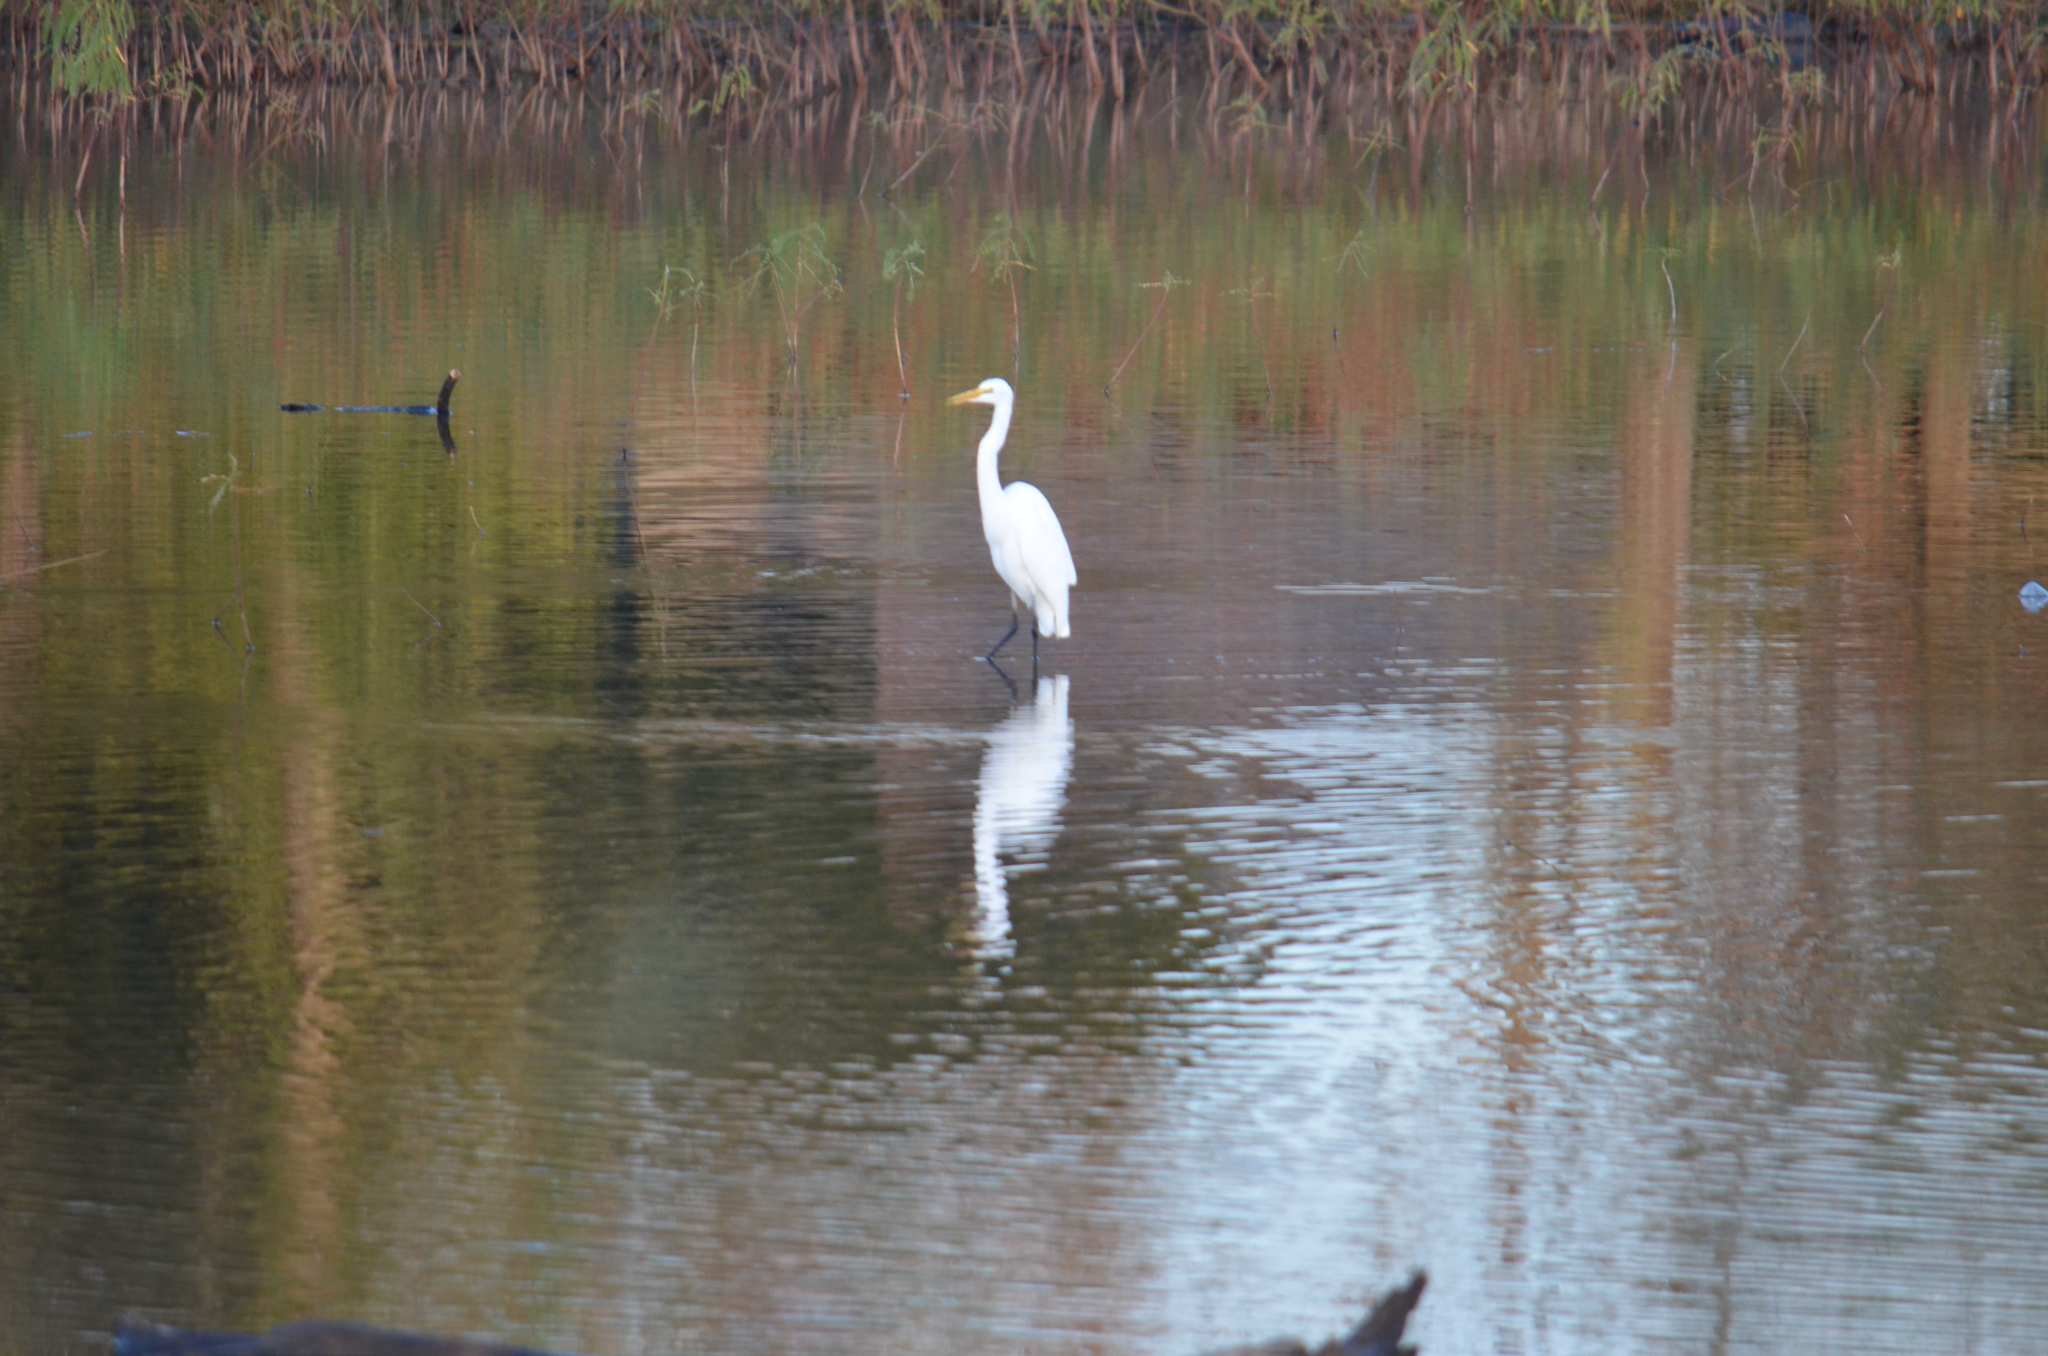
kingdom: Animalia
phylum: Chordata
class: Aves
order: Pelecaniformes
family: Ardeidae
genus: Ardea
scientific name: Ardea alba
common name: Great egret
